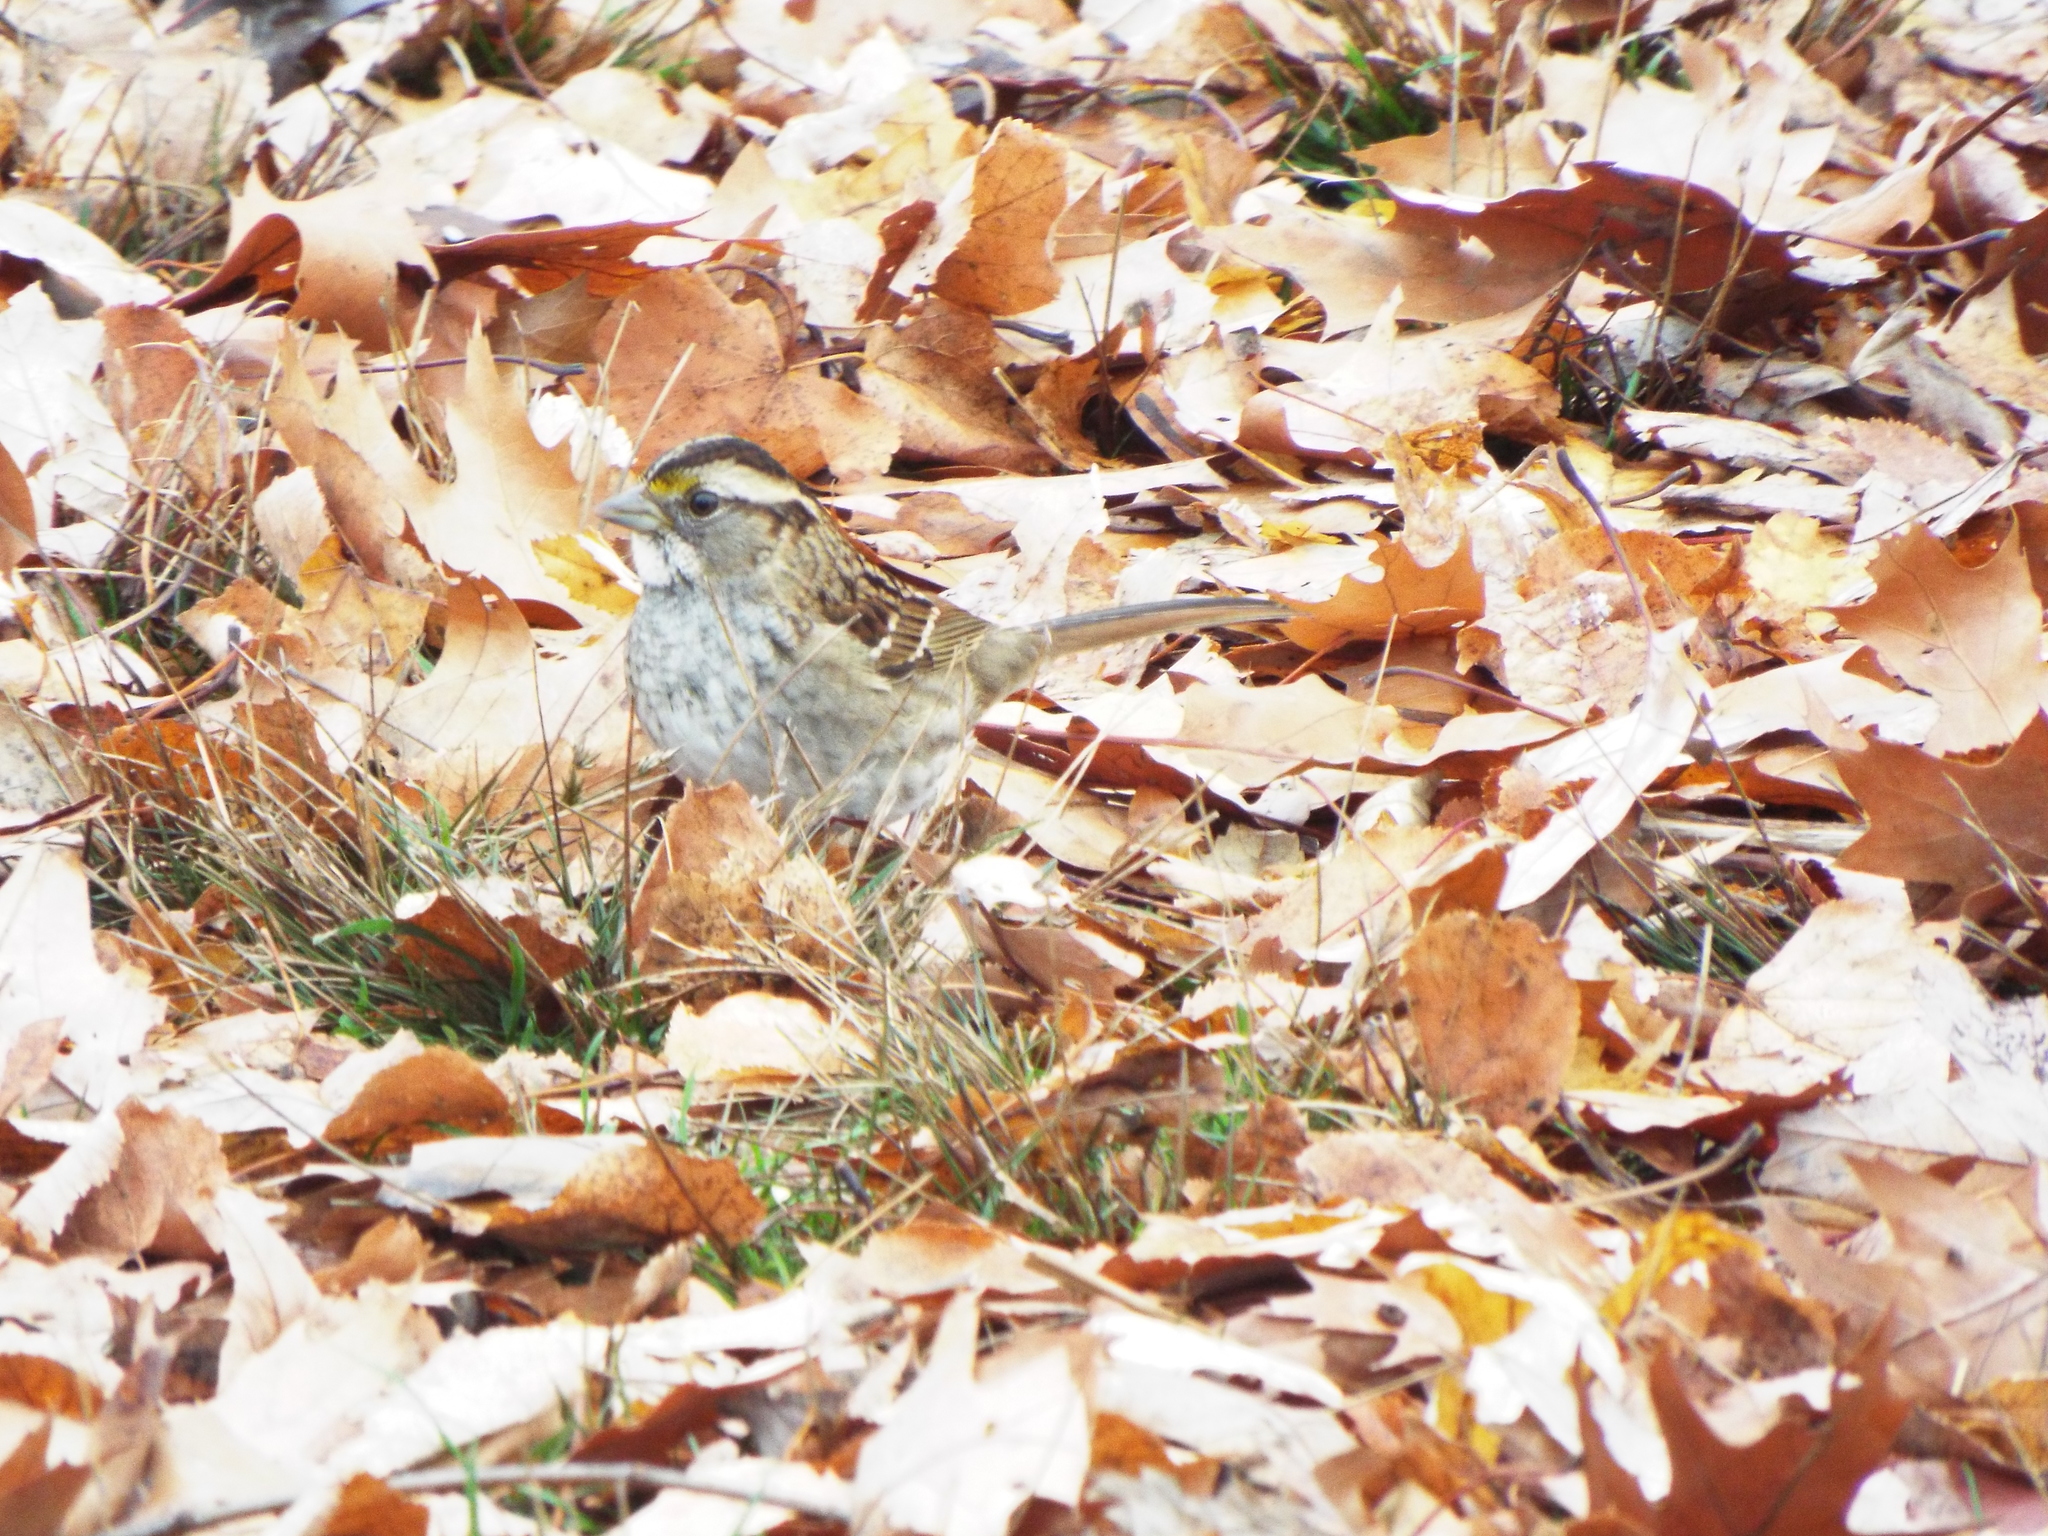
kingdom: Animalia
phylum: Chordata
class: Aves
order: Passeriformes
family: Passerellidae
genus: Zonotrichia
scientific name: Zonotrichia albicollis
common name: White-throated sparrow
